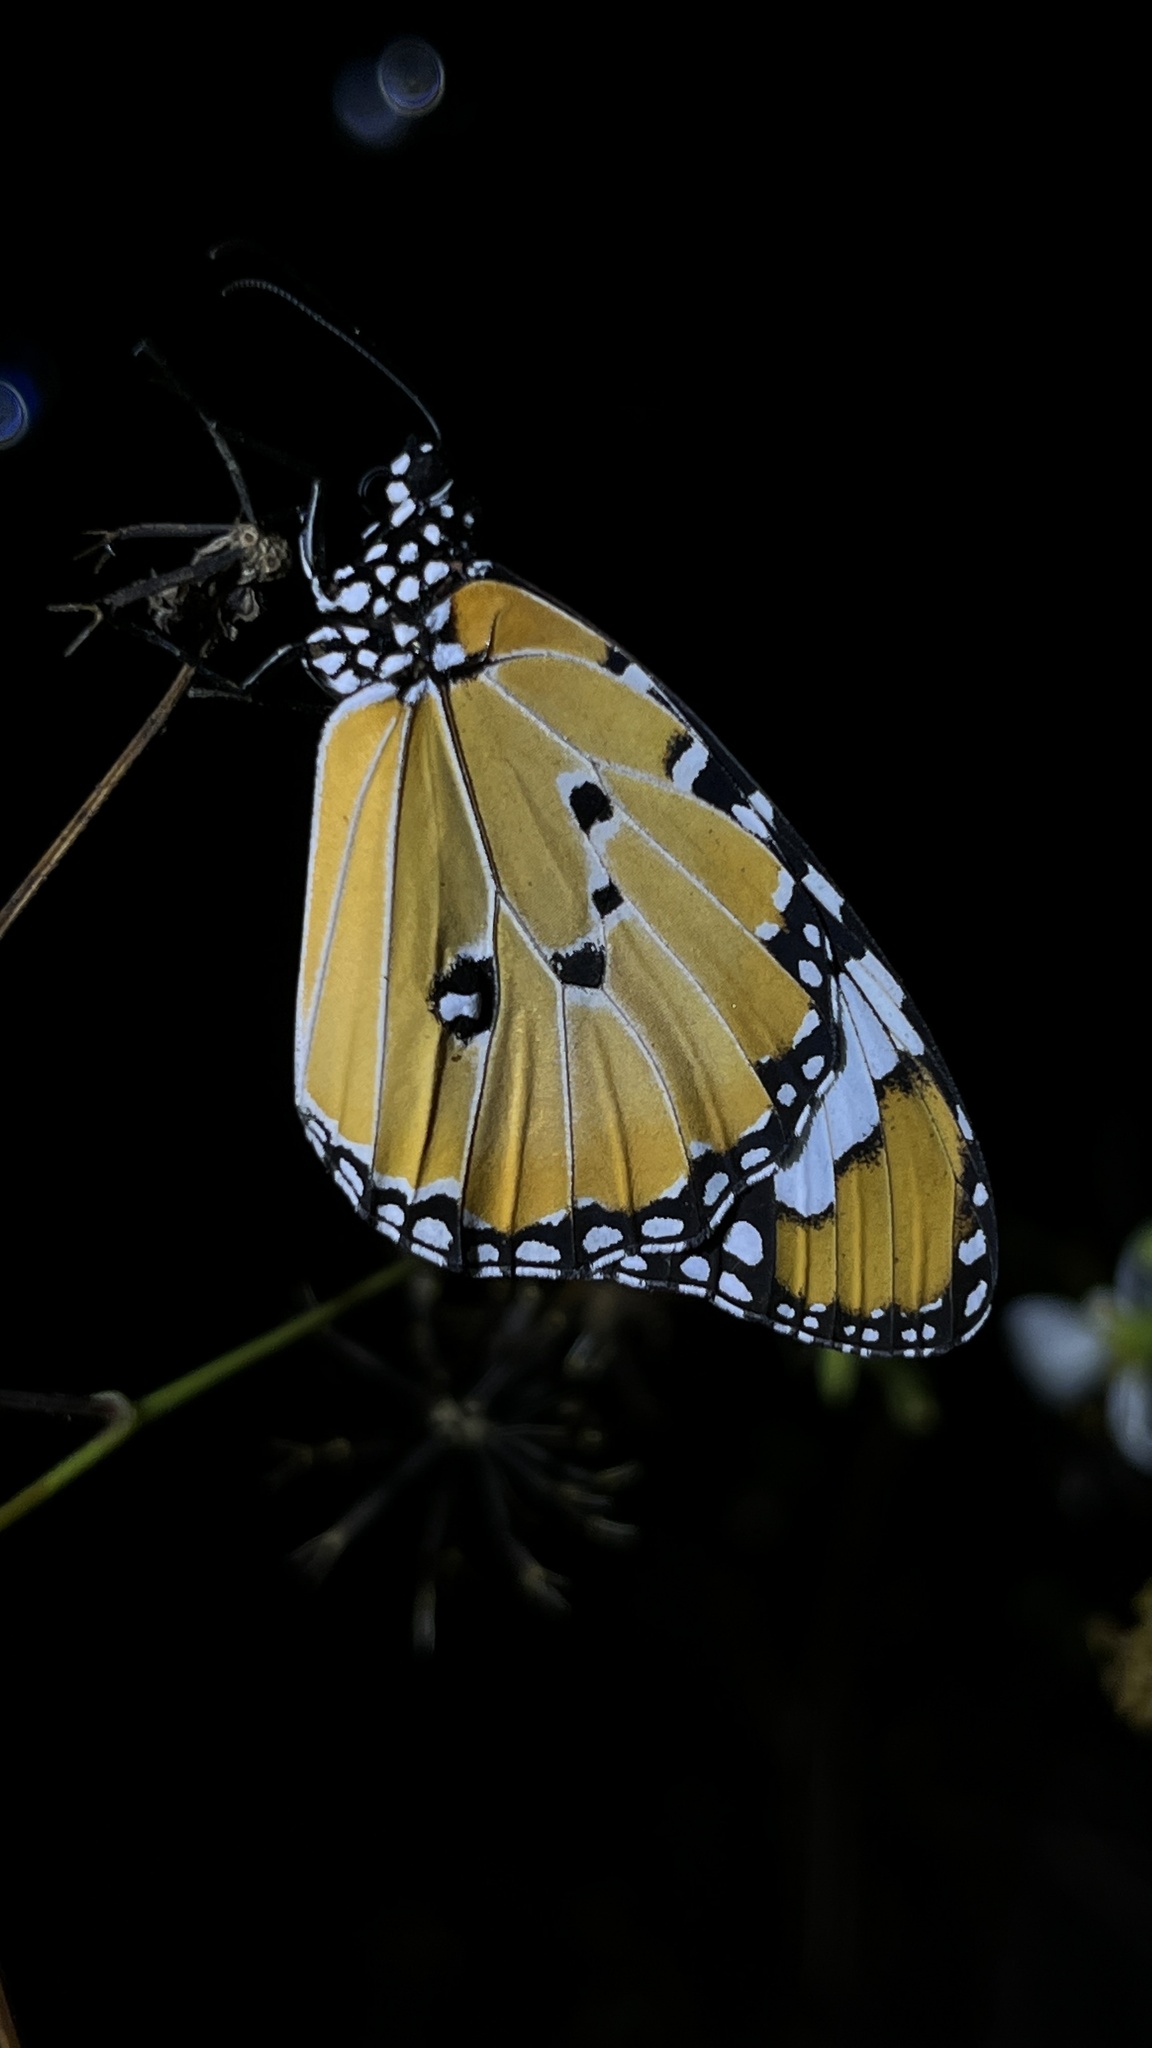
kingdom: Animalia
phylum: Arthropoda
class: Insecta
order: Lepidoptera
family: Nymphalidae
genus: Danaus
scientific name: Danaus chrysippus
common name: Plain tiger
